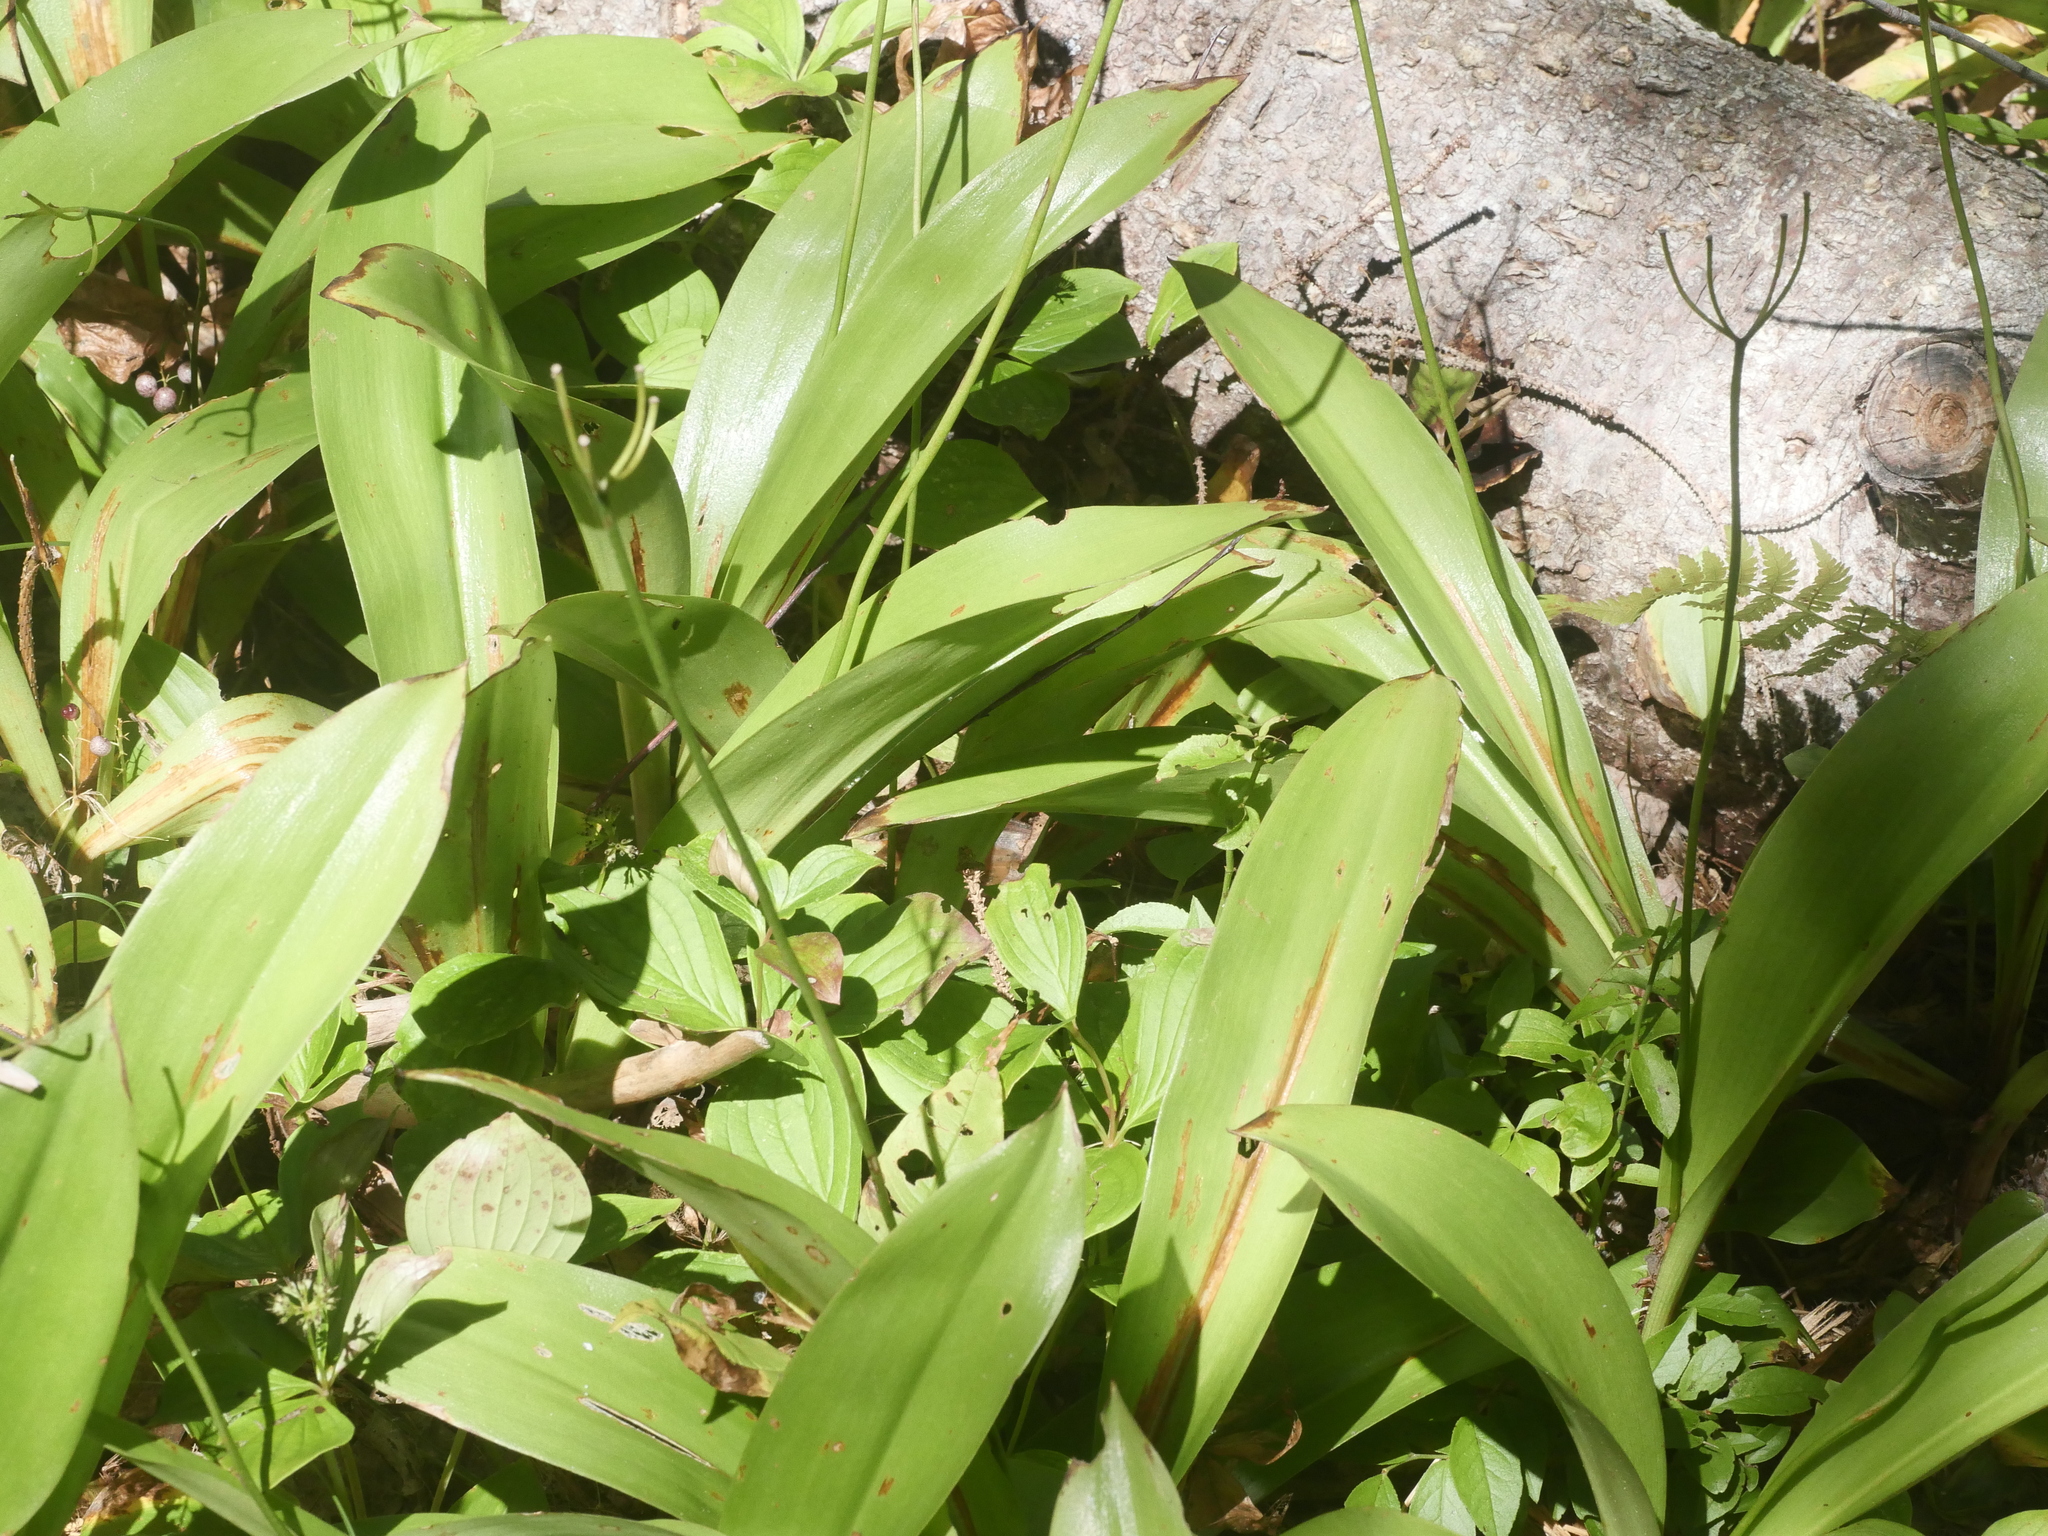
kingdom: Plantae
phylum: Tracheophyta
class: Liliopsida
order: Liliales
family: Liliaceae
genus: Clintonia
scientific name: Clintonia borealis
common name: Yellow clintonia
